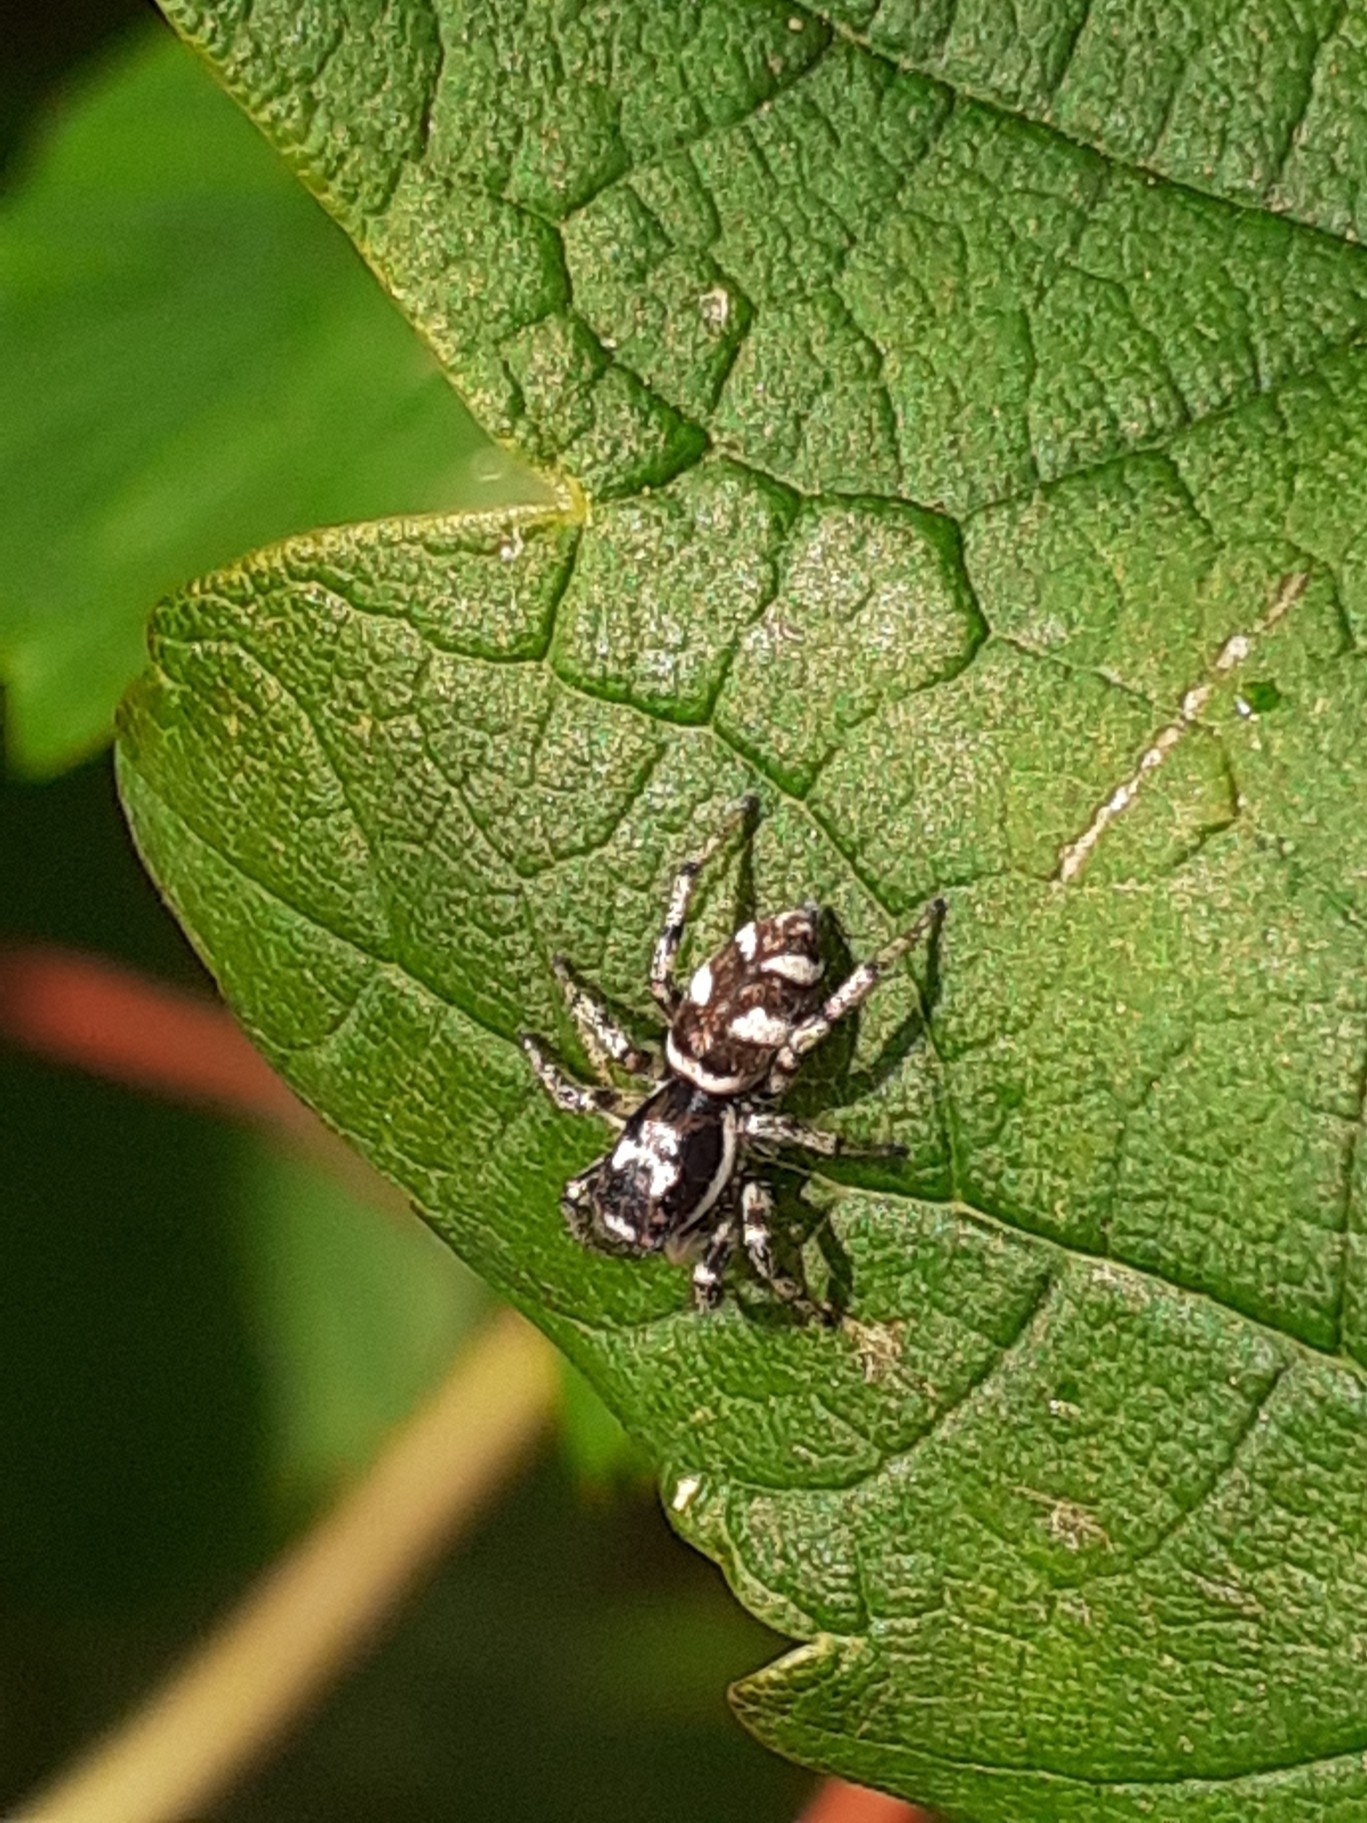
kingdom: Animalia
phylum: Arthropoda
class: Arachnida
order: Araneae
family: Salticidae
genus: Salticus
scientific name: Salticus scenicus
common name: Zebra jumper
